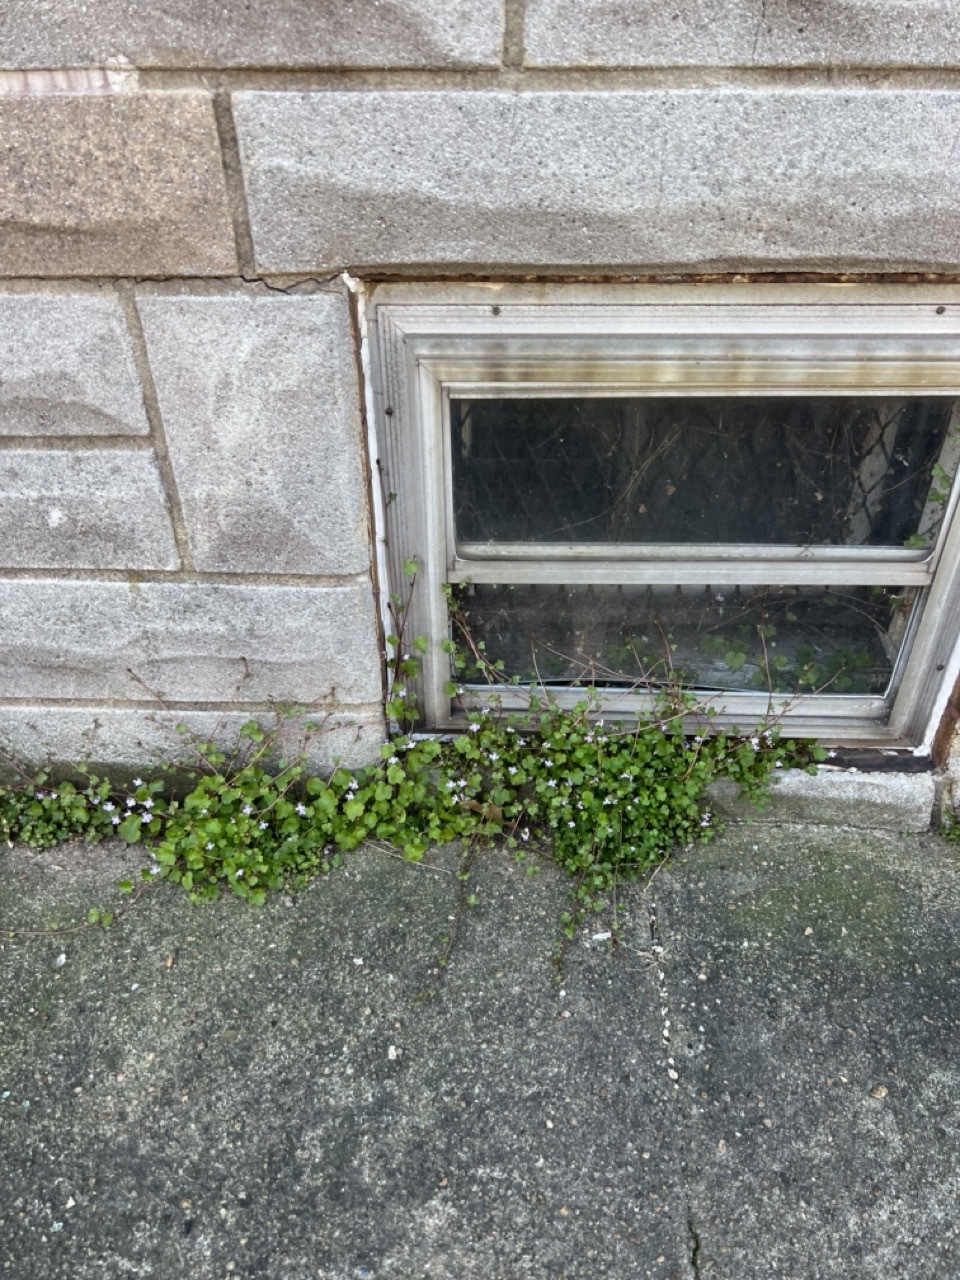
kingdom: Plantae
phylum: Tracheophyta
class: Magnoliopsida
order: Lamiales
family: Plantaginaceae
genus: Cymbalaria
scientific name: Cymbalaria muralis
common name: Ivy-leaved toadflax
